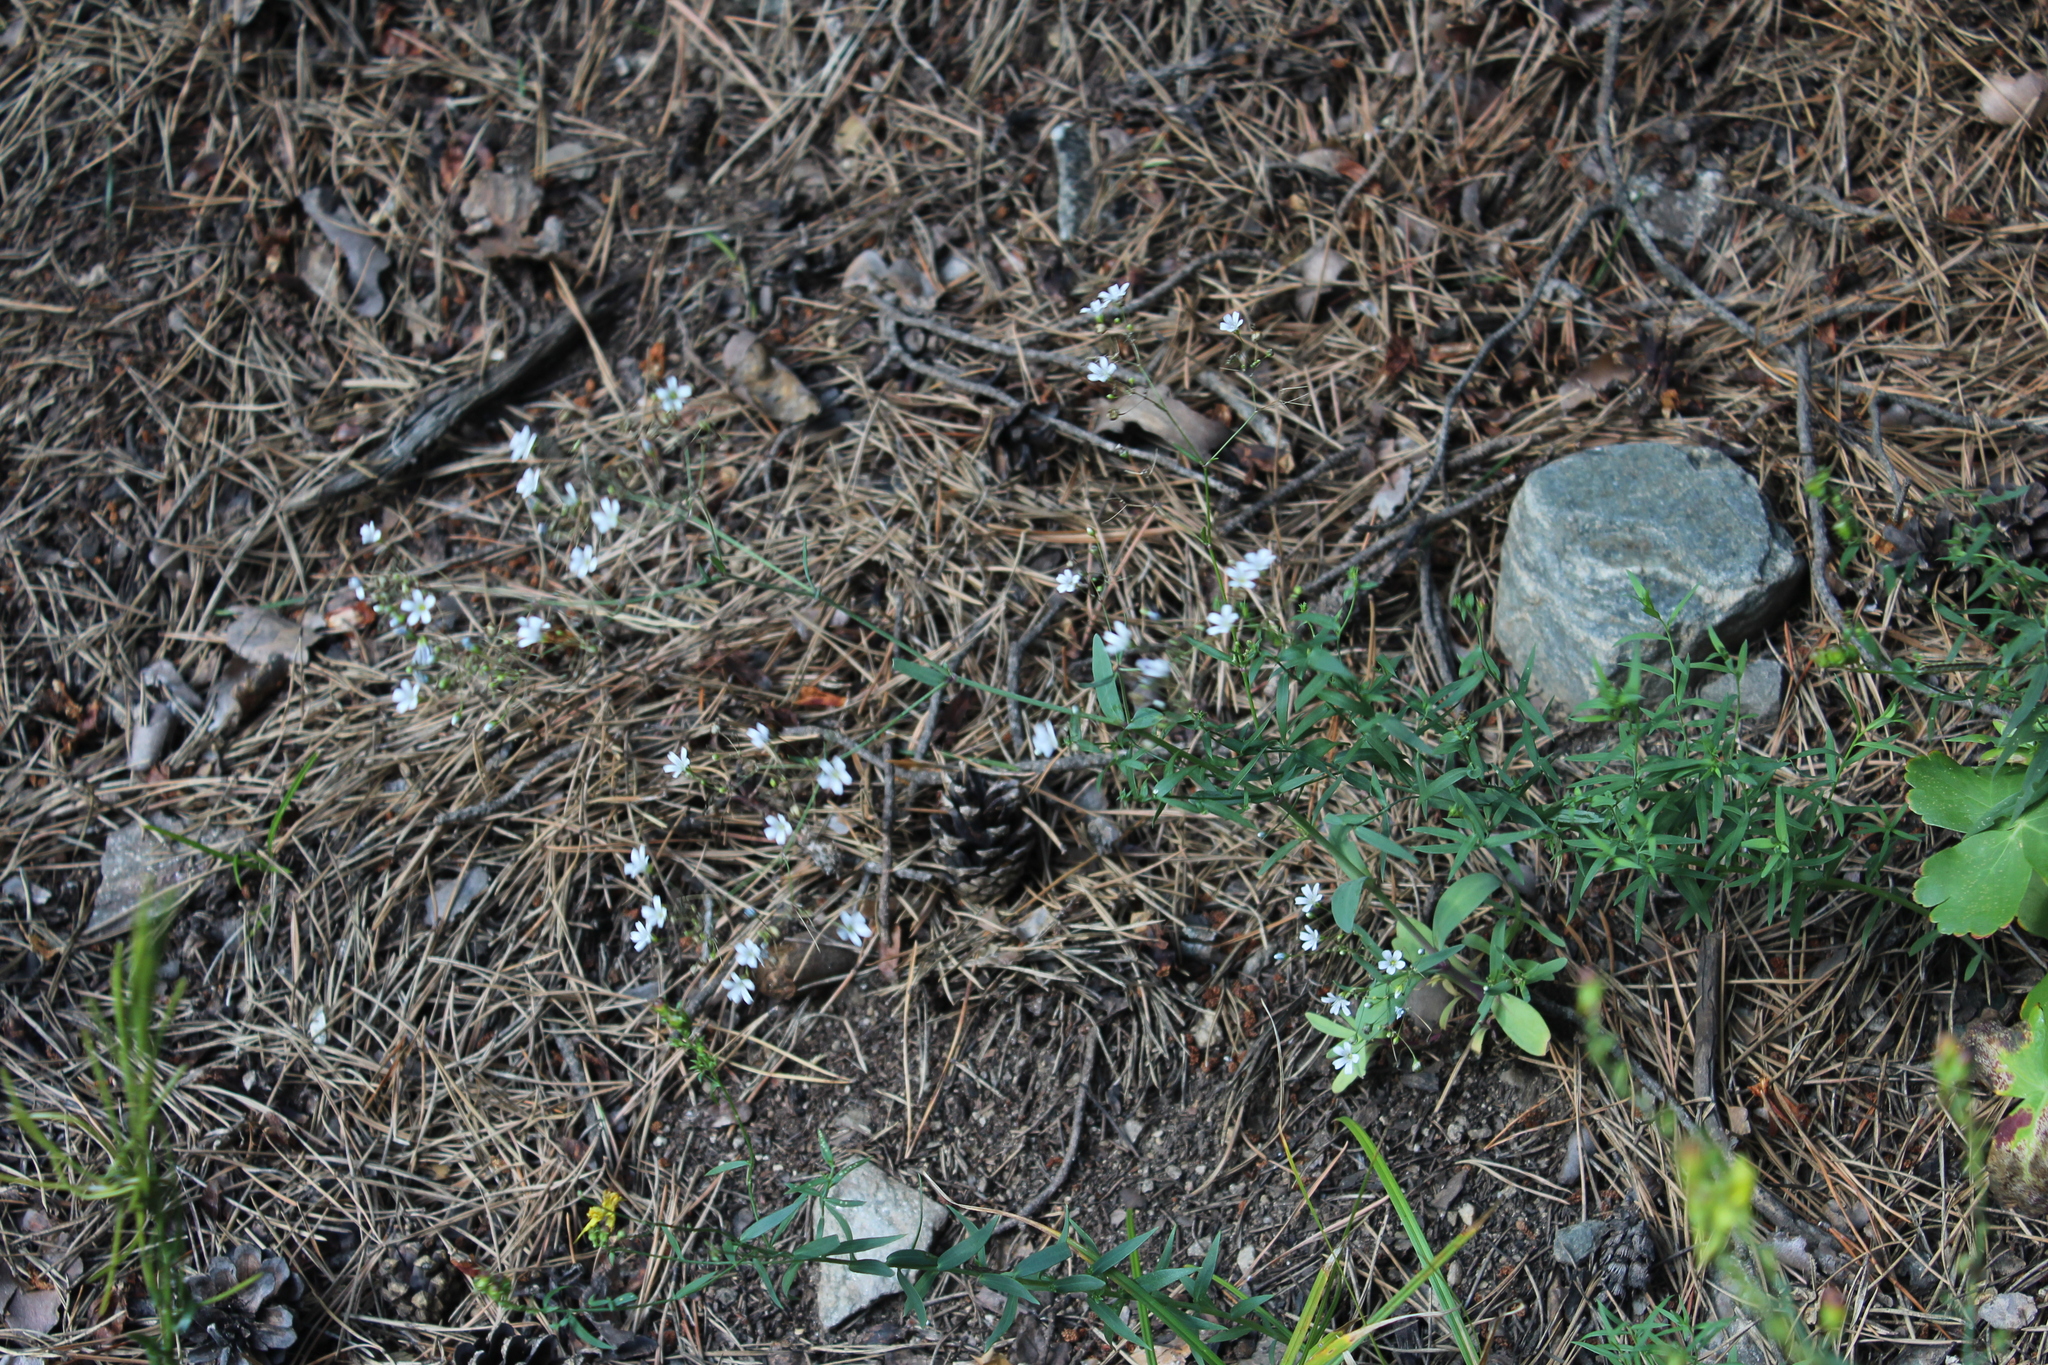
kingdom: Plantae
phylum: Tracheophyta
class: Magnoliopsida
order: Caryophyllales
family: Caryophyllaceae
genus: Gypsophila
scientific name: Gypsophila elegans
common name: Showy baby's-breath
